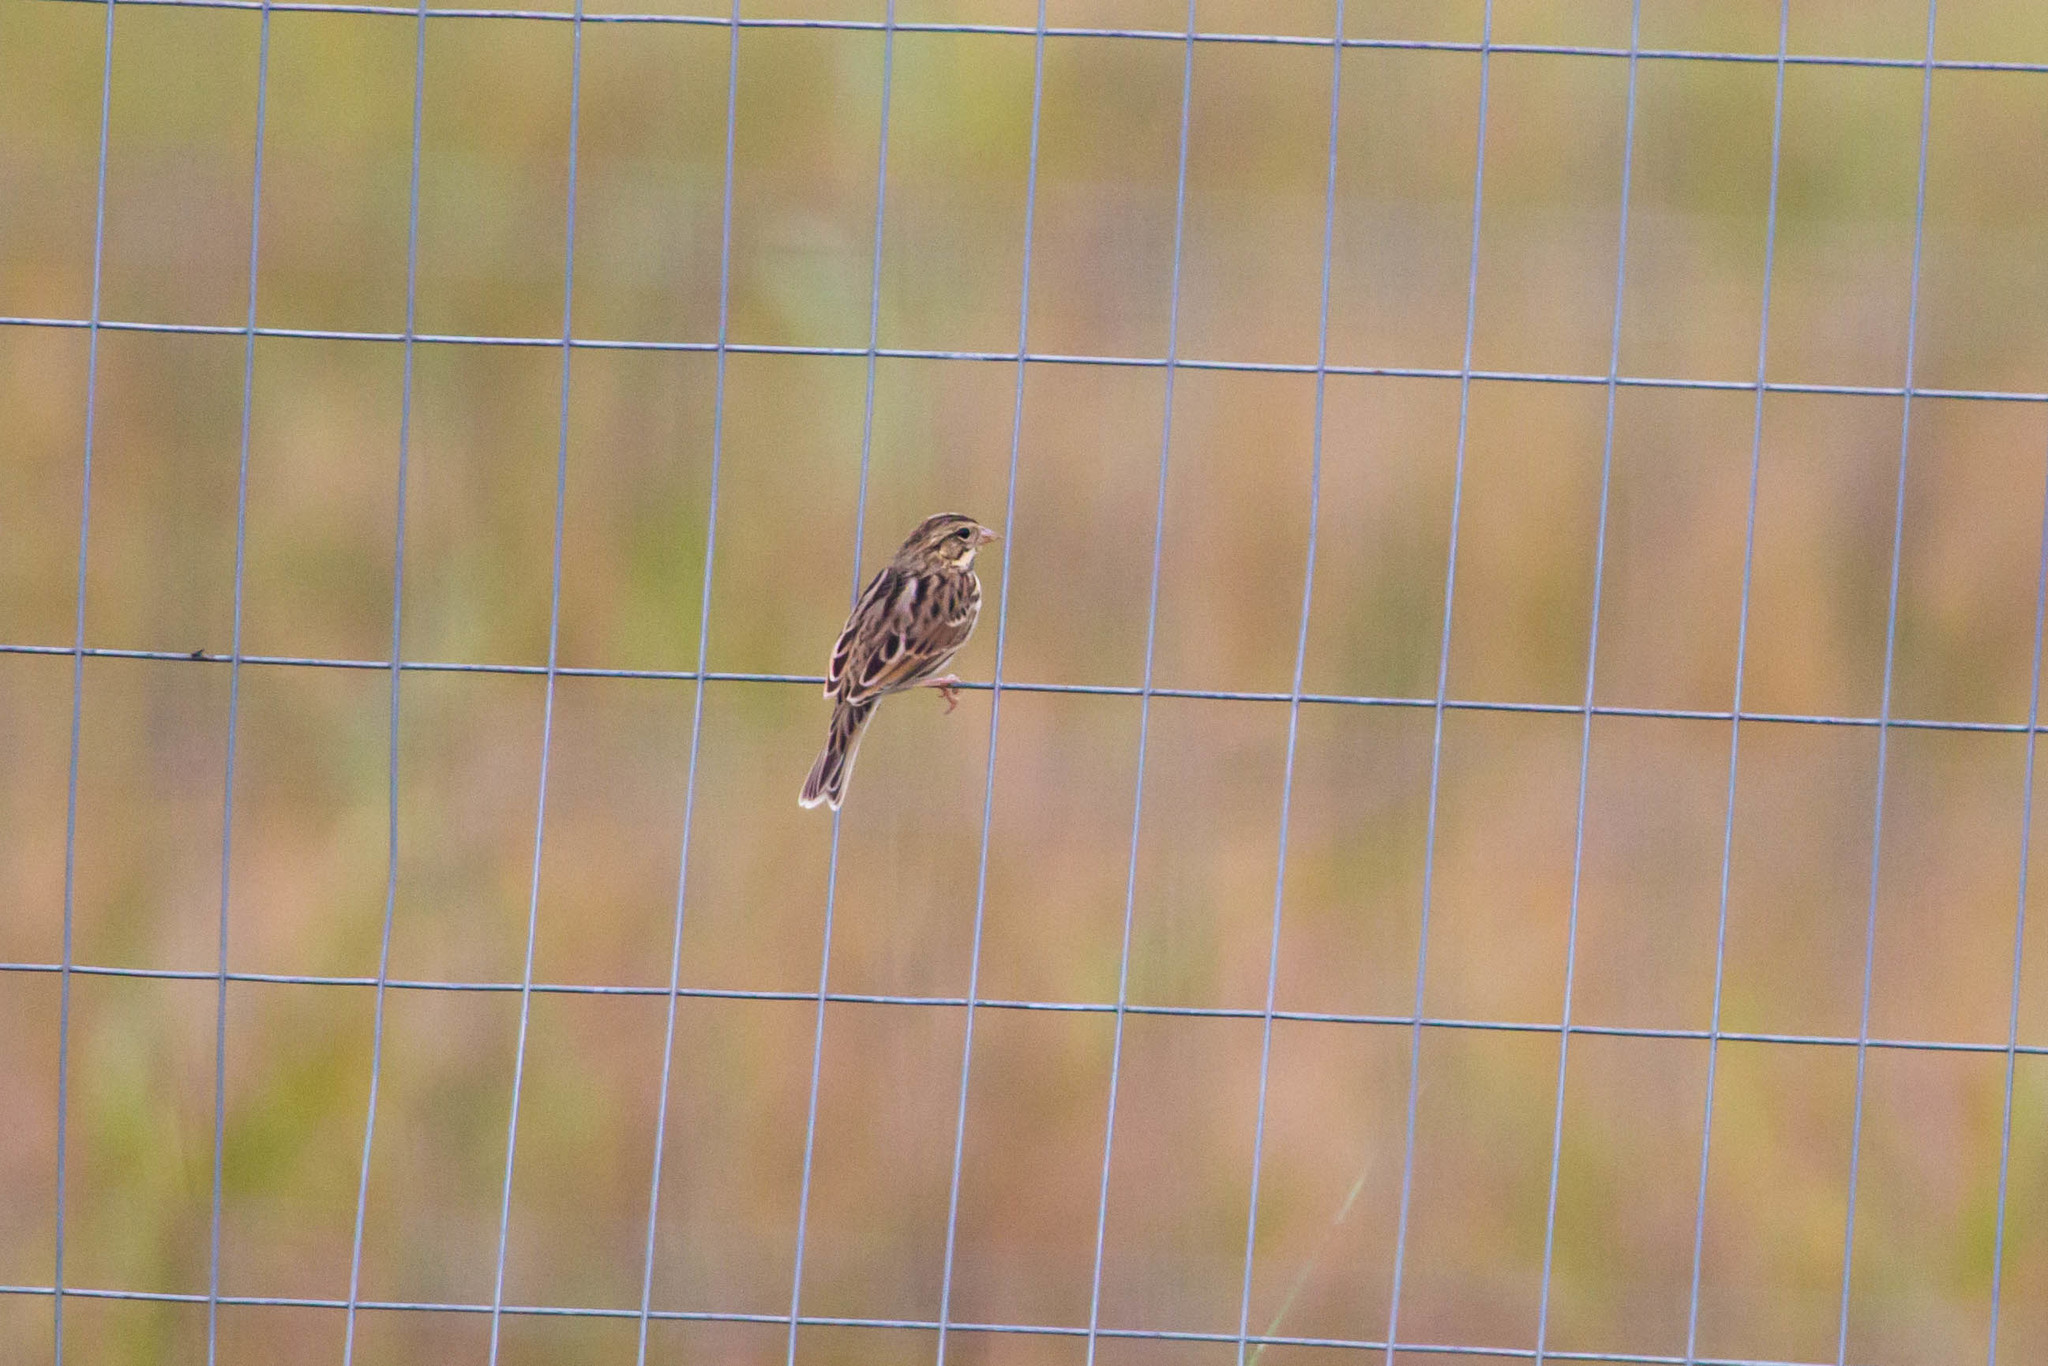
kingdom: Animalia
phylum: Chordata
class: Aves
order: Passeriformes
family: Passerellidae
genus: Passerculus
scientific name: Passerculus sandwichensis
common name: Savannah sparrow
